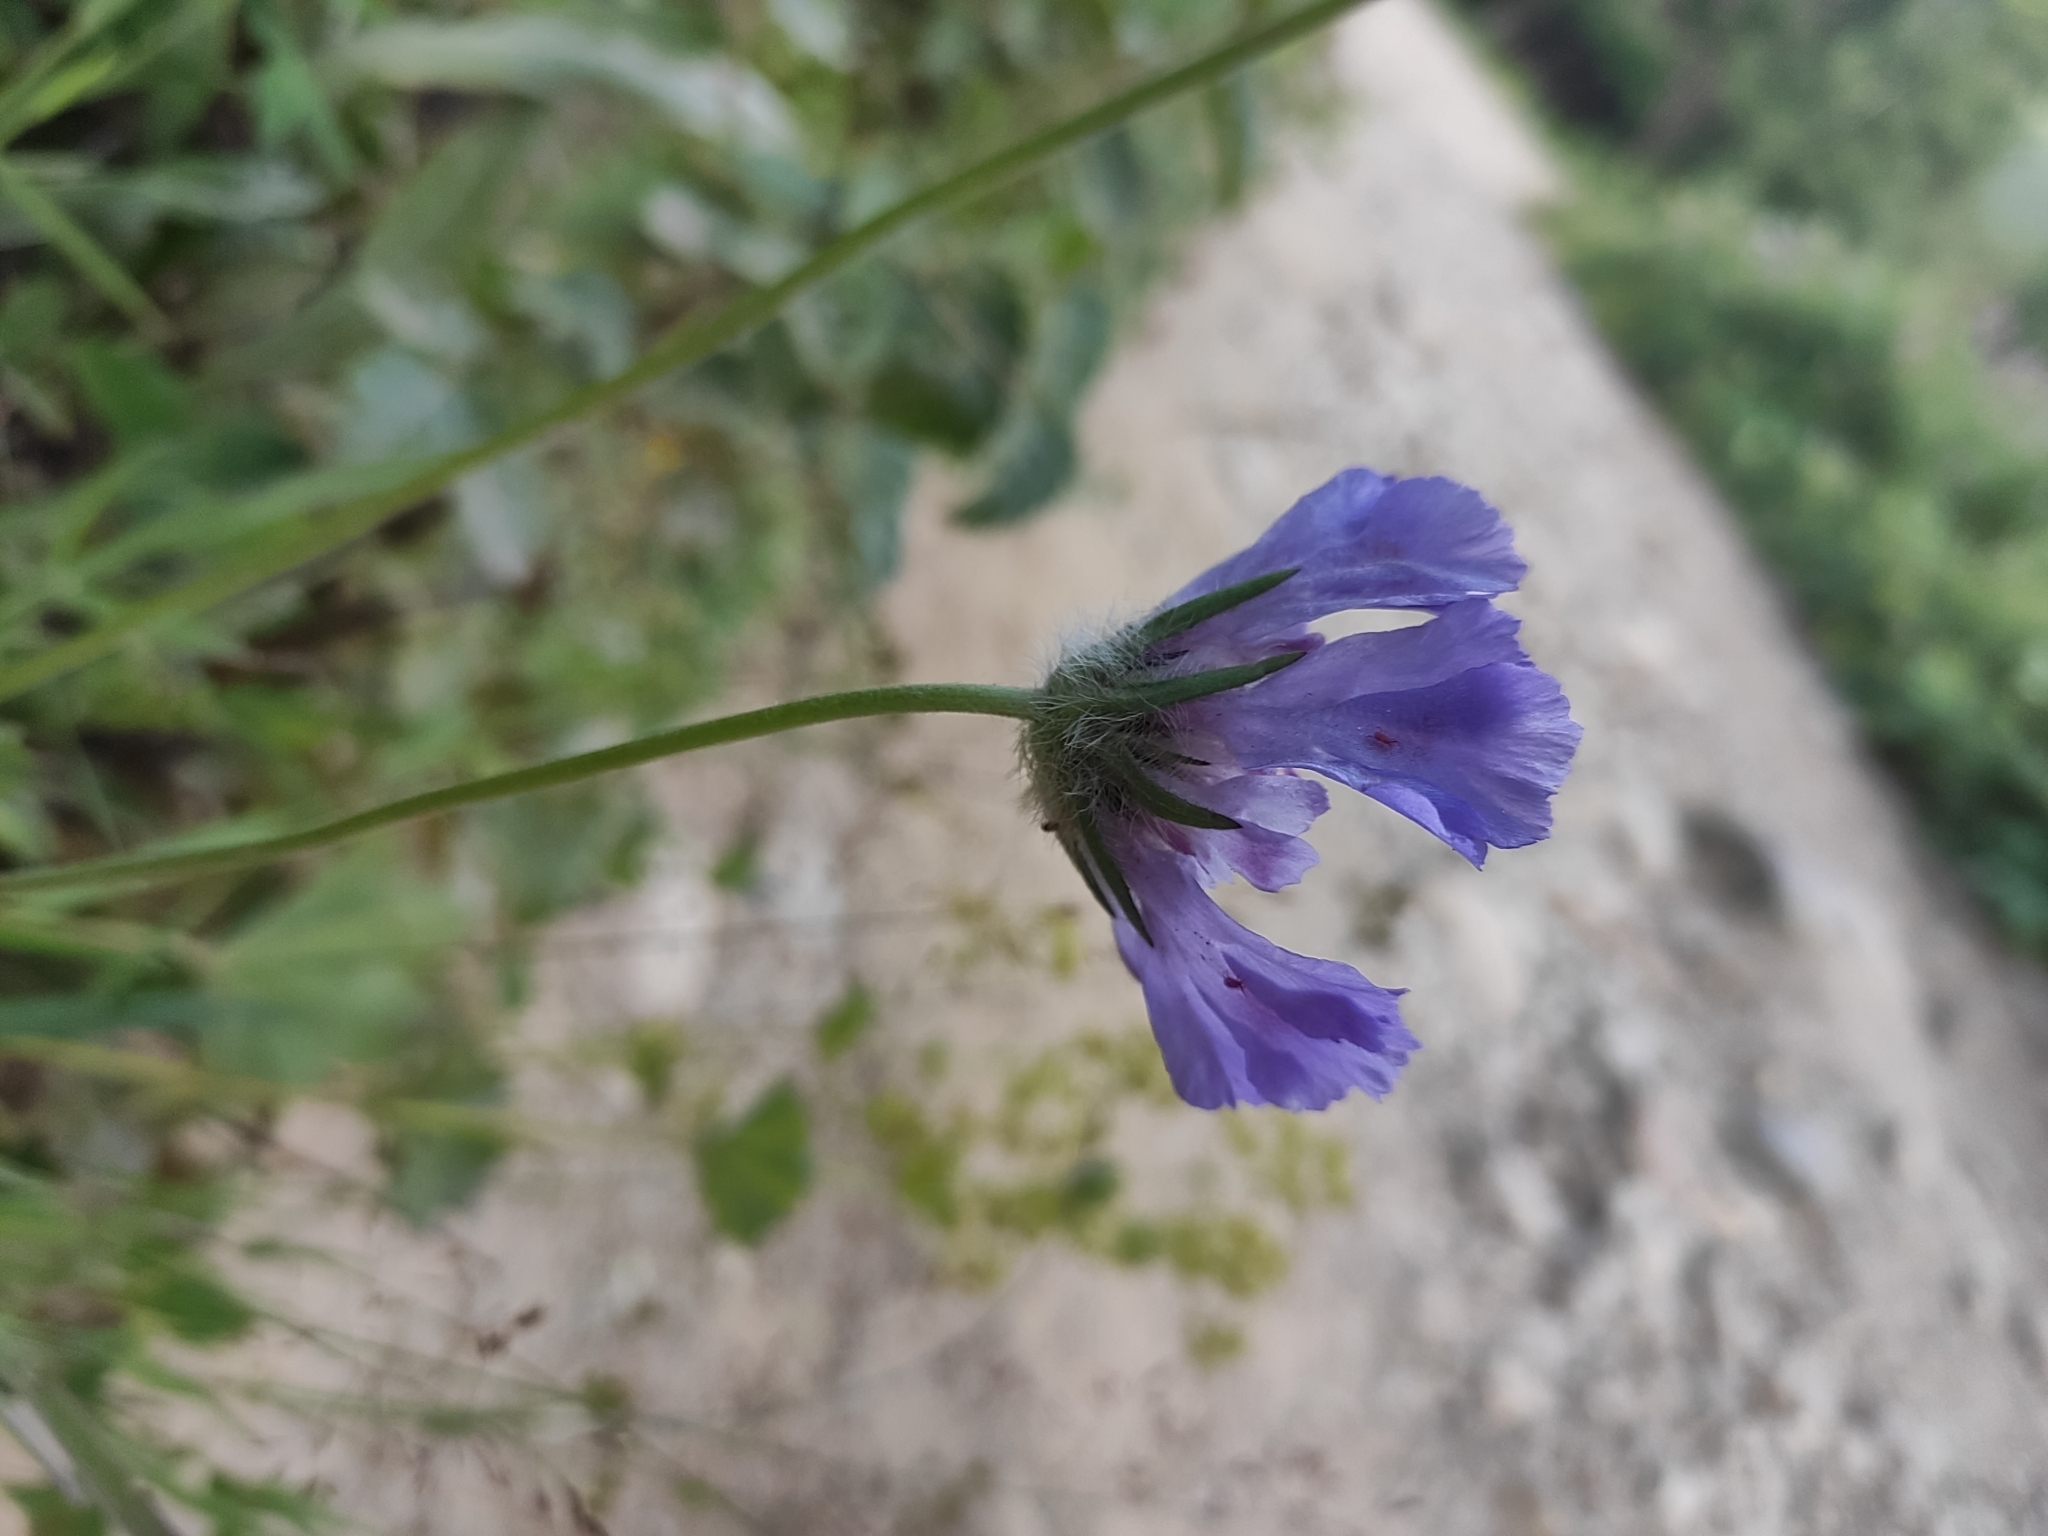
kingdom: Plantae
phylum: Tracheophyta
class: Magnoliopsida
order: Dipsacales
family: Caprifoliaceae
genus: Lomelosia
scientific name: Lomelosia caucasica
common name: Pincushion-flower
